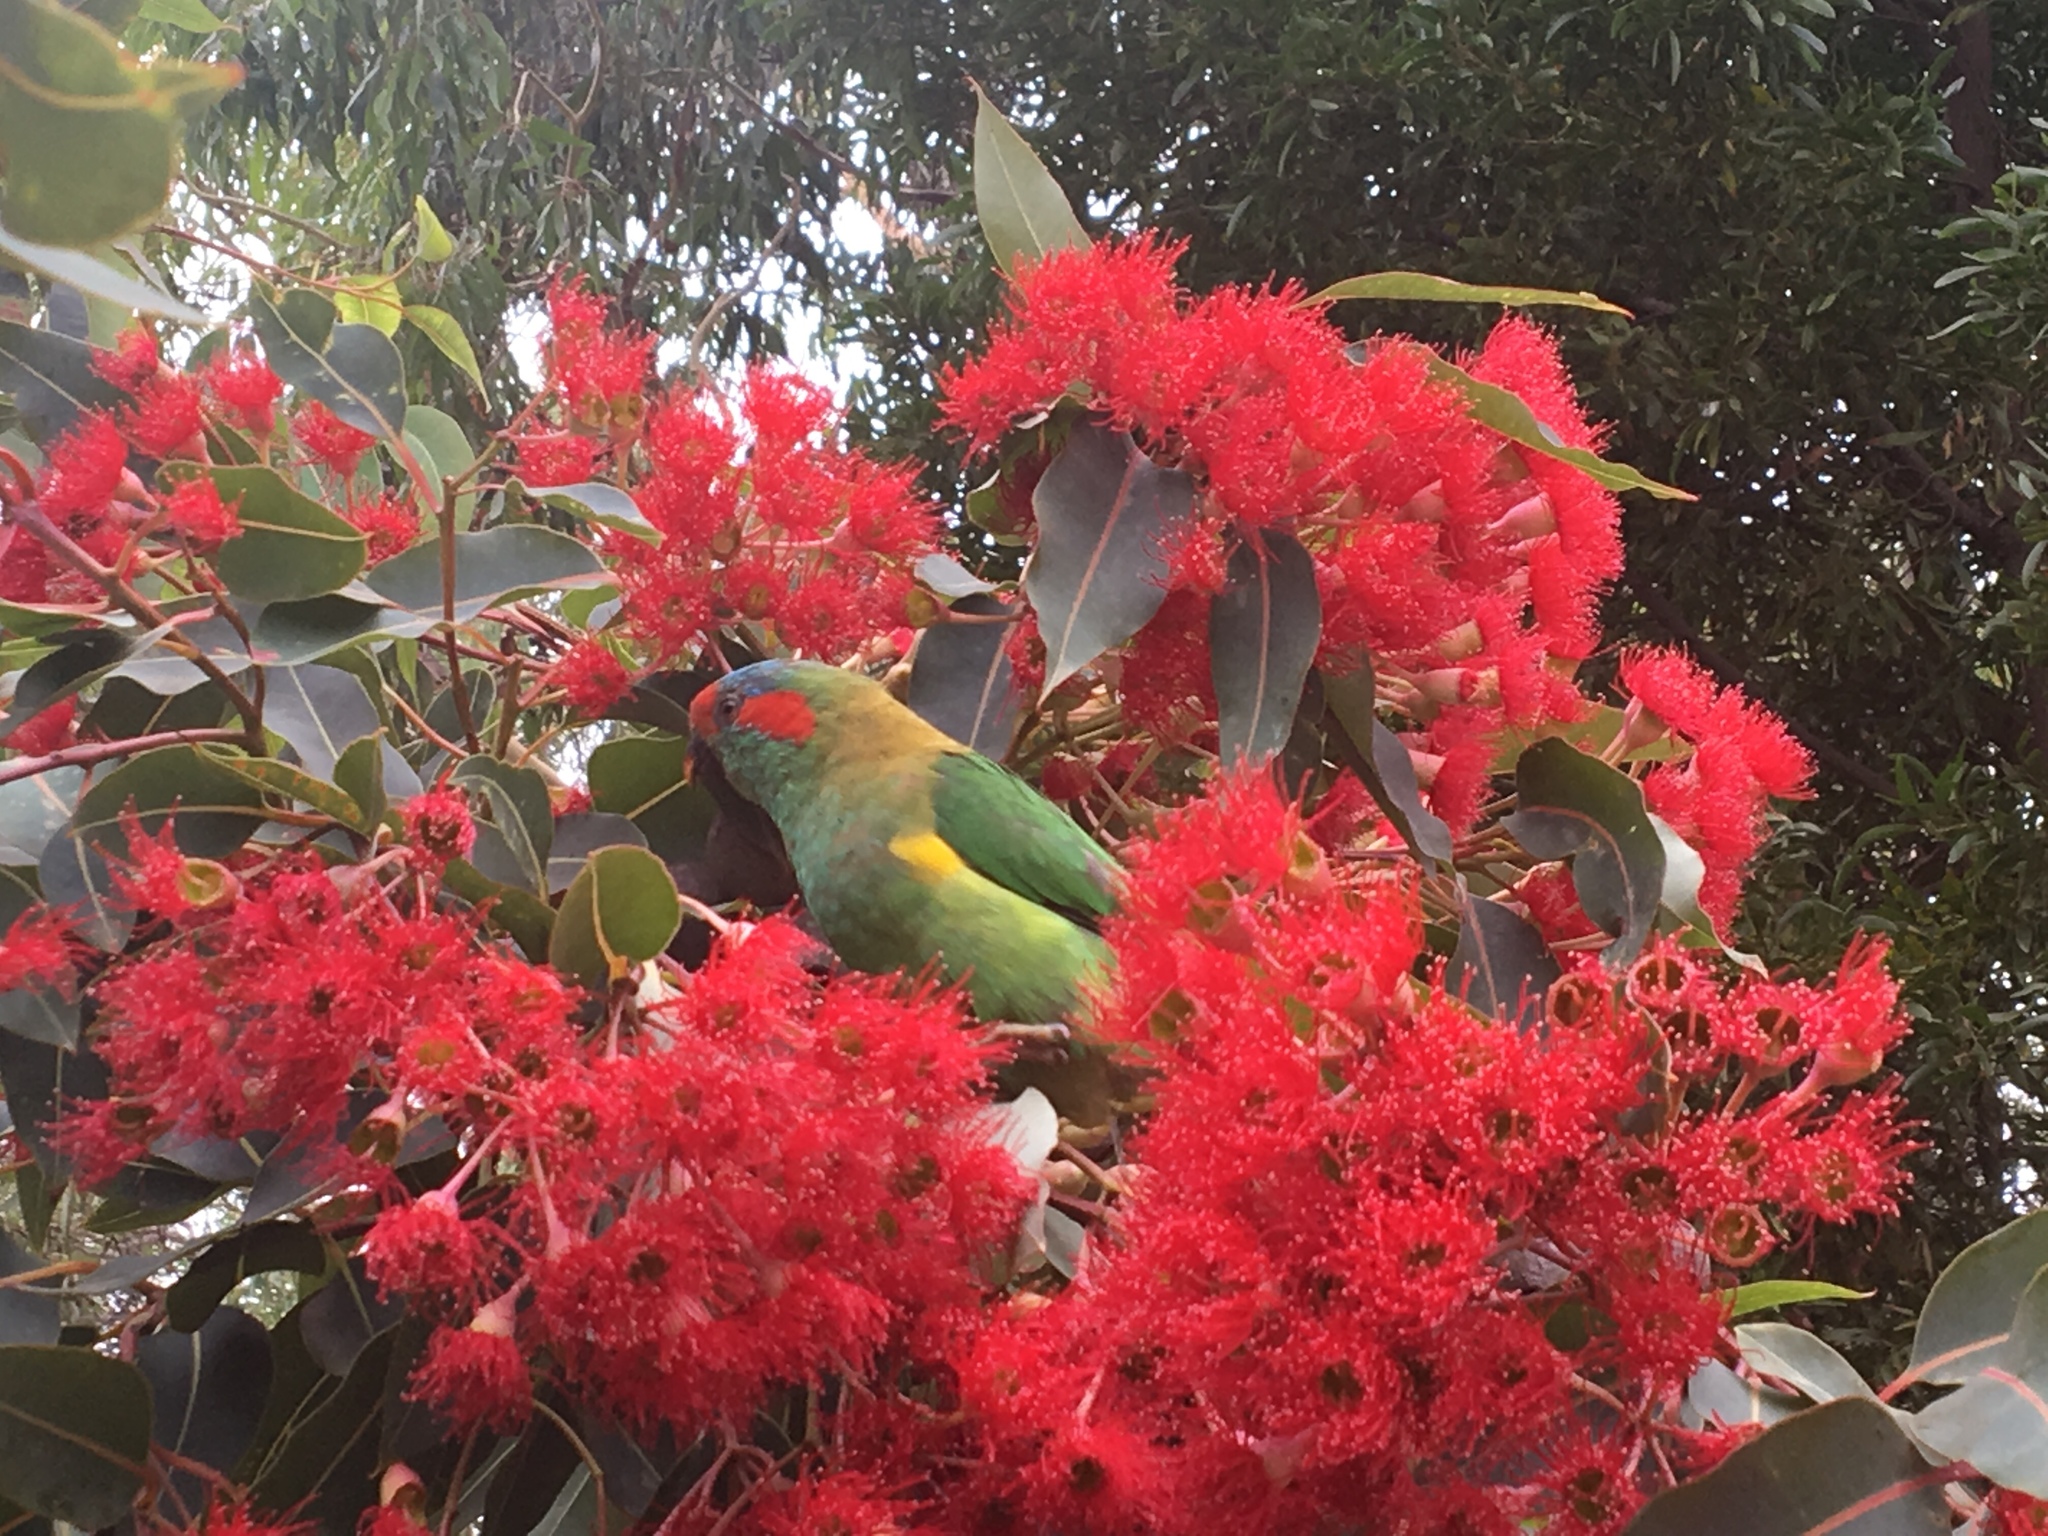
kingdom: Animalia
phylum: Chordata
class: Aves
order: Psittaciformes
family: Psittacidae
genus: Glossopsitta
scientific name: Glossopsitta concinna
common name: Musk lorikeet
